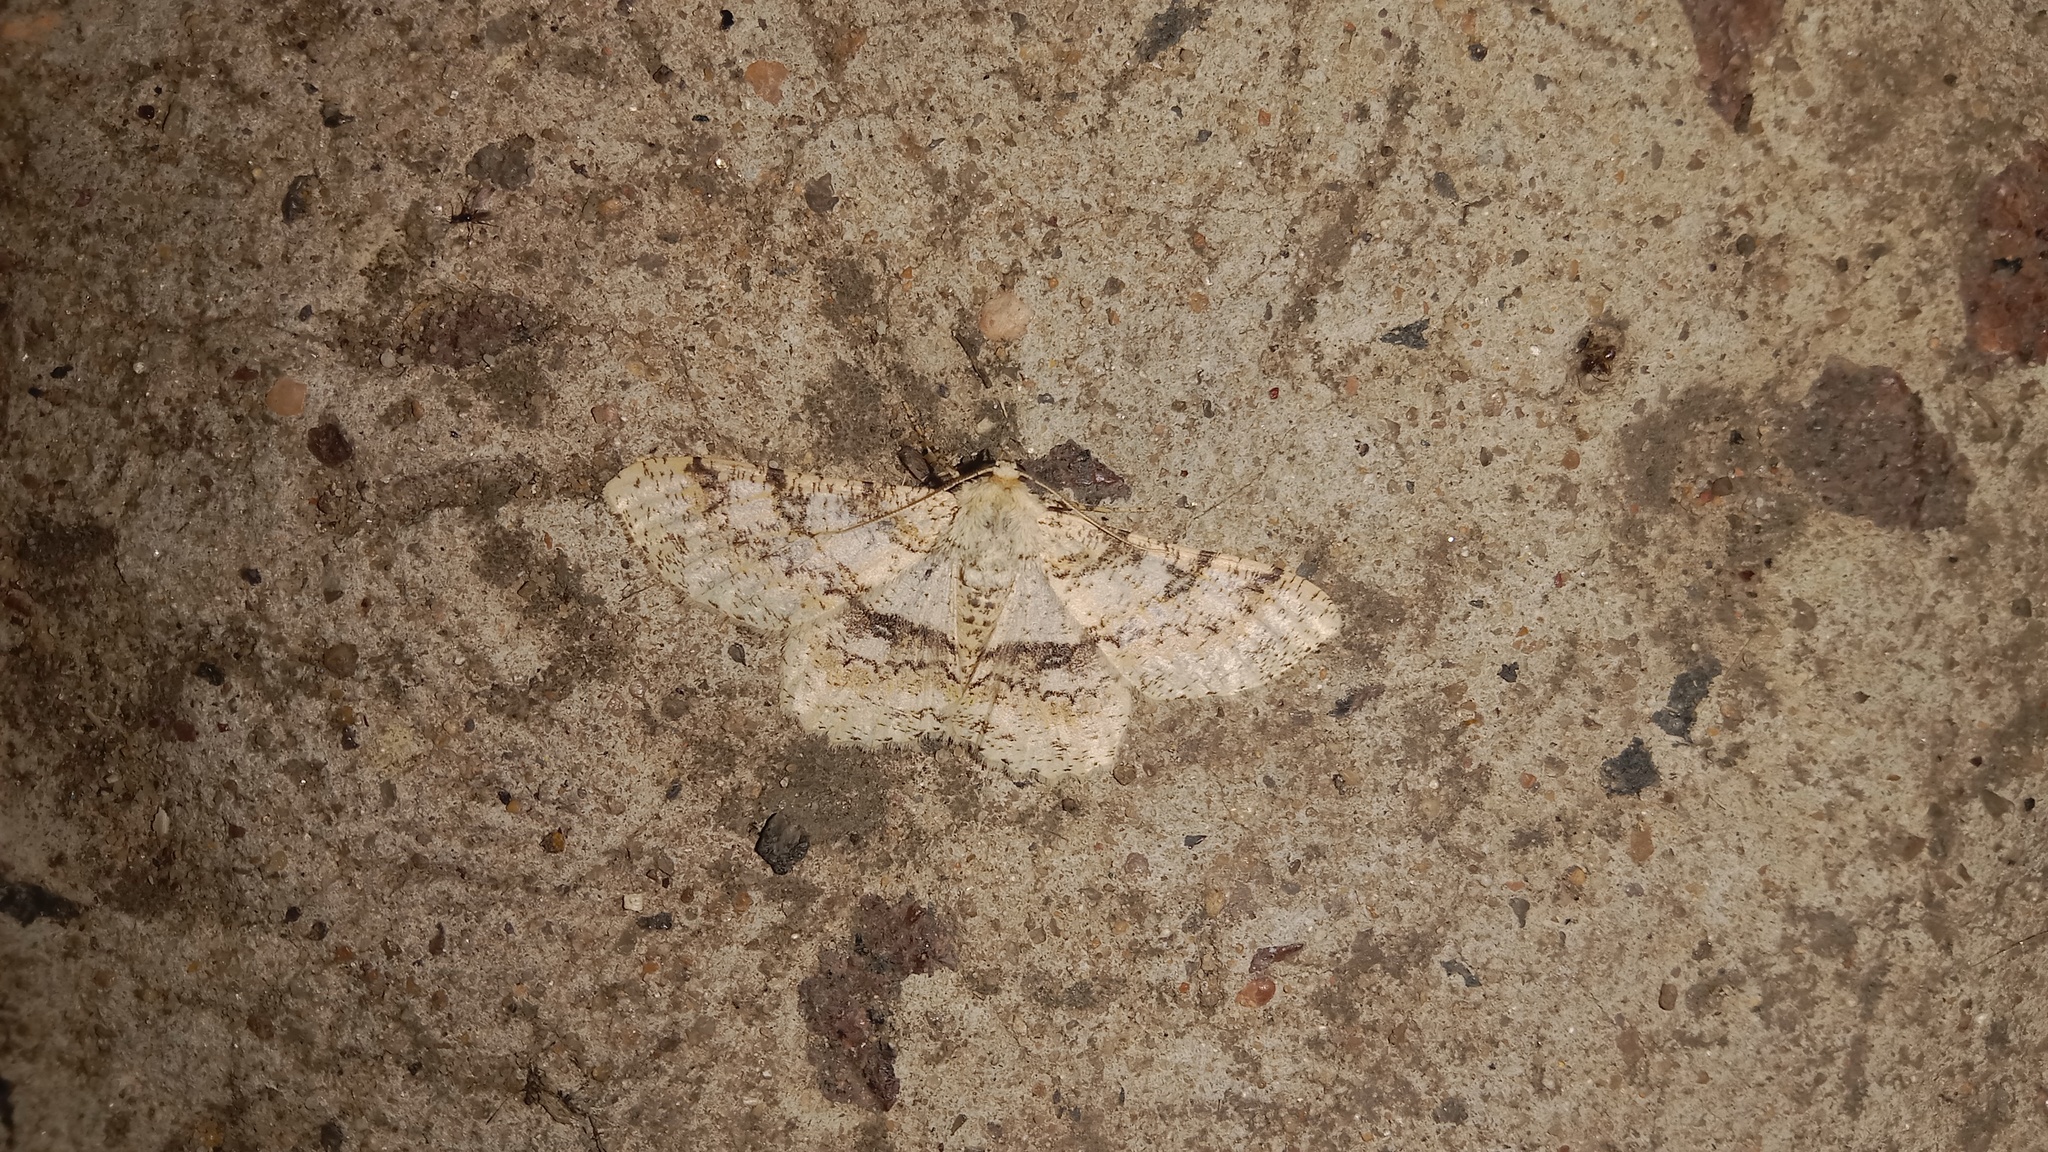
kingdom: Animalia
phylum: Arthropoda
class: Insecta
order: Lepidoptera
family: Geometridae
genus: Ascotis
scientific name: Ascotis selenaria
